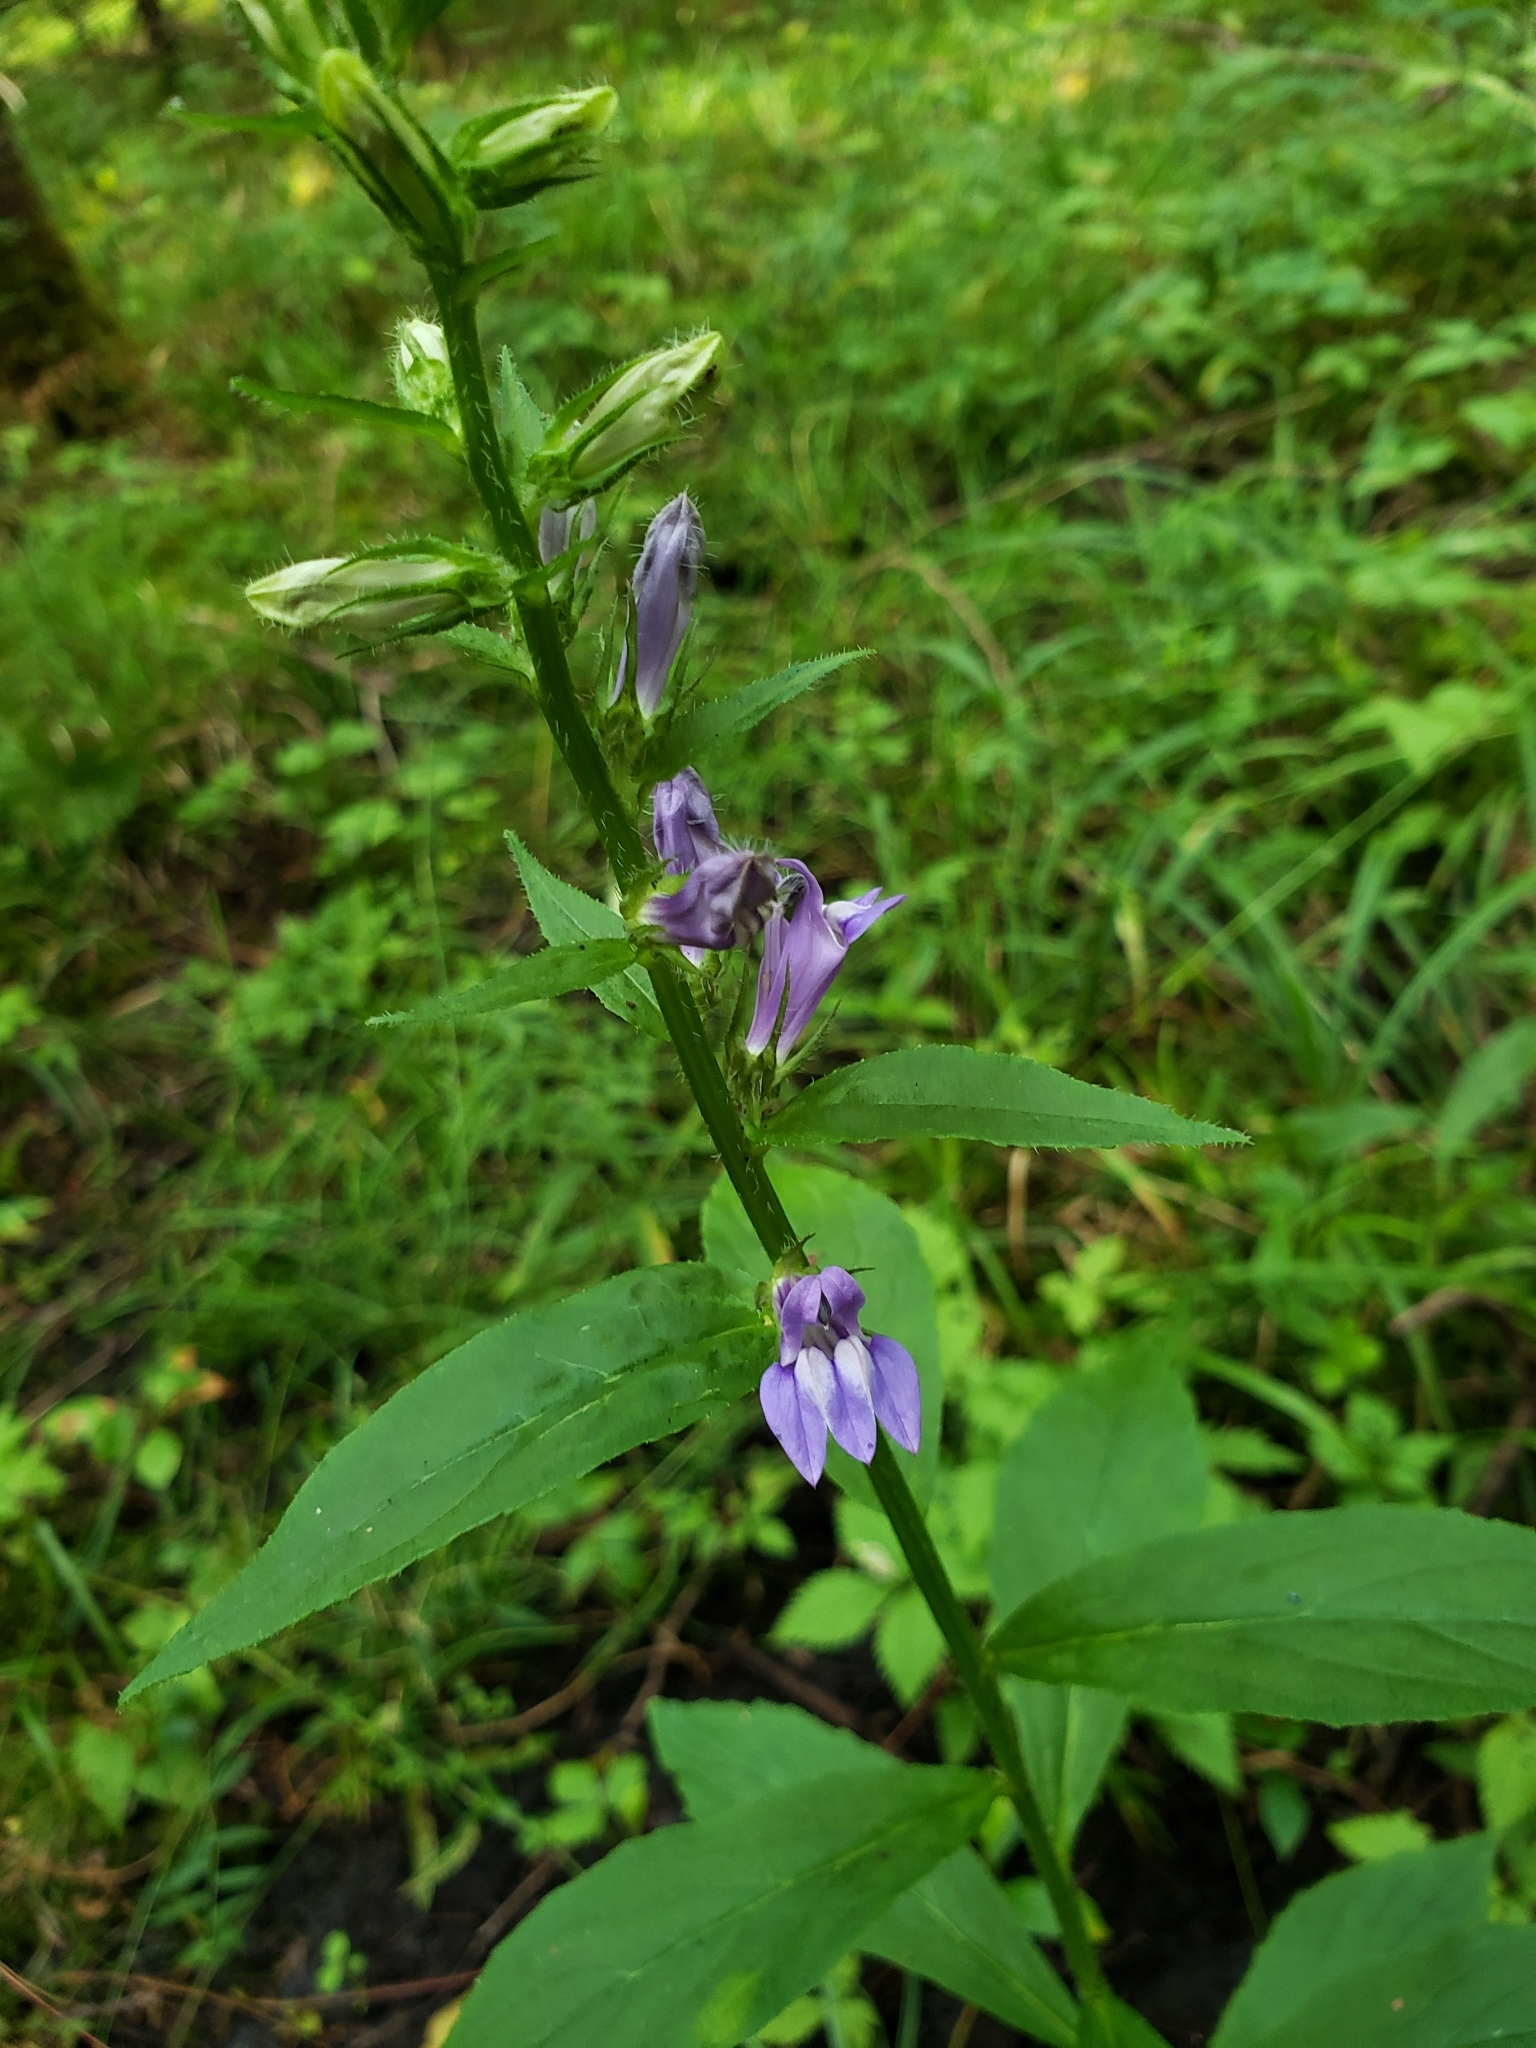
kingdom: Plantae
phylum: Tracheophyta
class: Magnoliopsida
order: Asterales
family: Campanulaceae
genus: Lobelia
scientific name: Lobelia siphilitica
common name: Great lobelia
